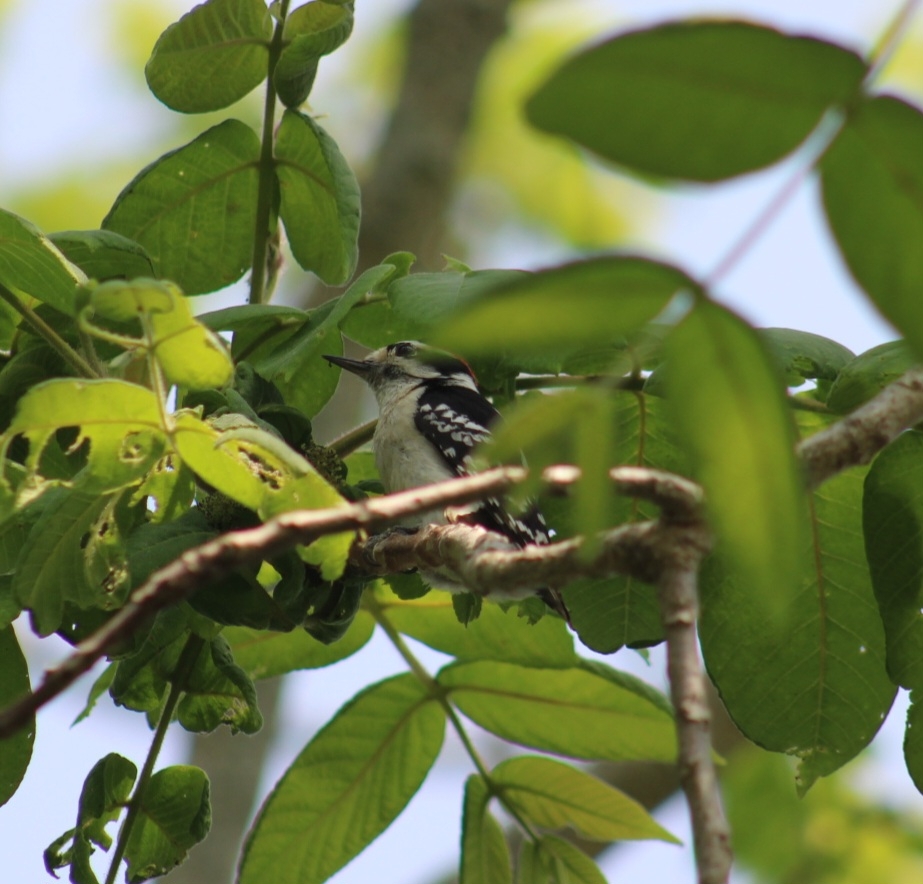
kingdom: Animalia
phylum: Chordata
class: Aves
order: Piciformes
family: Picidae
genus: Dryobates
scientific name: Dryobates pubescens
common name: Downy woodpecker
